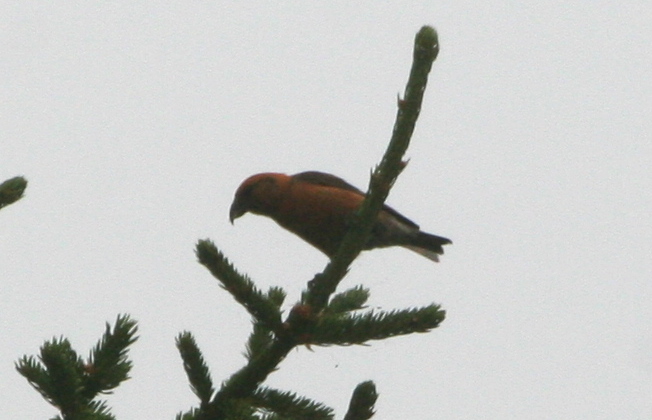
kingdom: Animalia
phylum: Chordata
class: Aves
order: Passeriformes
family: Fringillidae
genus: Loxia
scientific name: Loxia curvirostra
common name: Red crossbill
